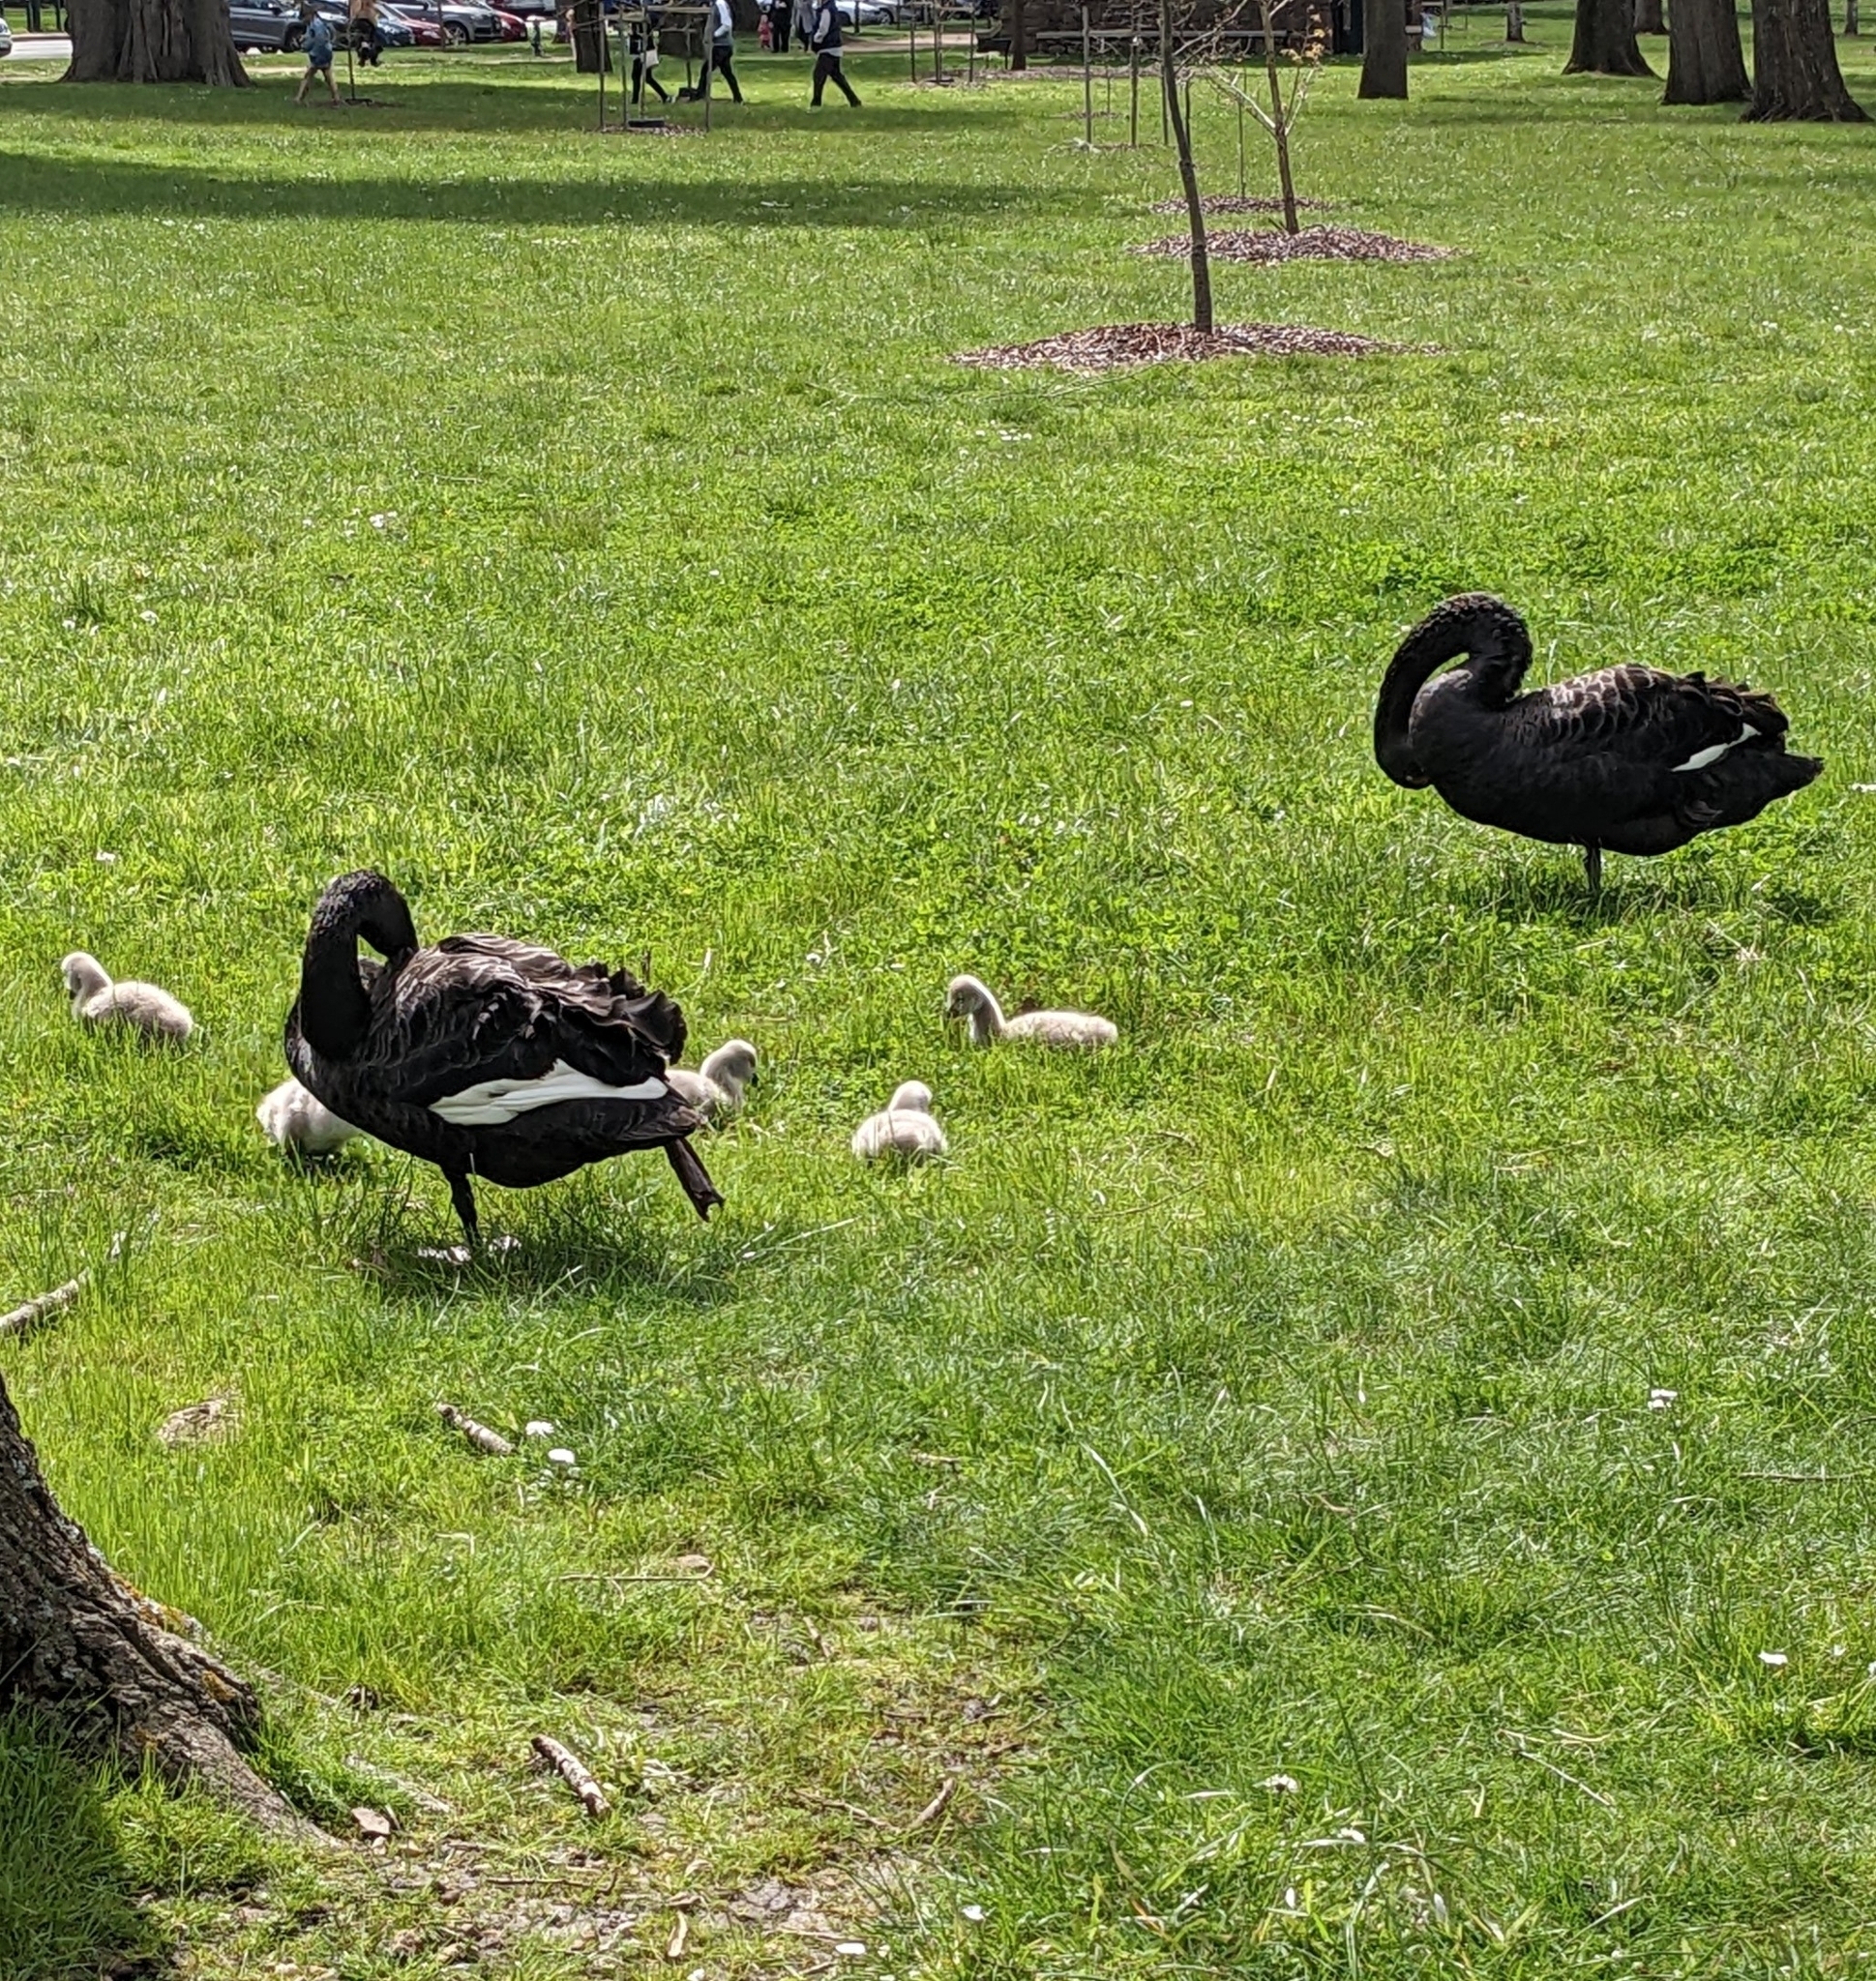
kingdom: Animalia
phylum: Chordata
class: Aves
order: Anseriformes
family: Anatidae
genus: Cygnus
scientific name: Cygnus atratus
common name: Black swan
